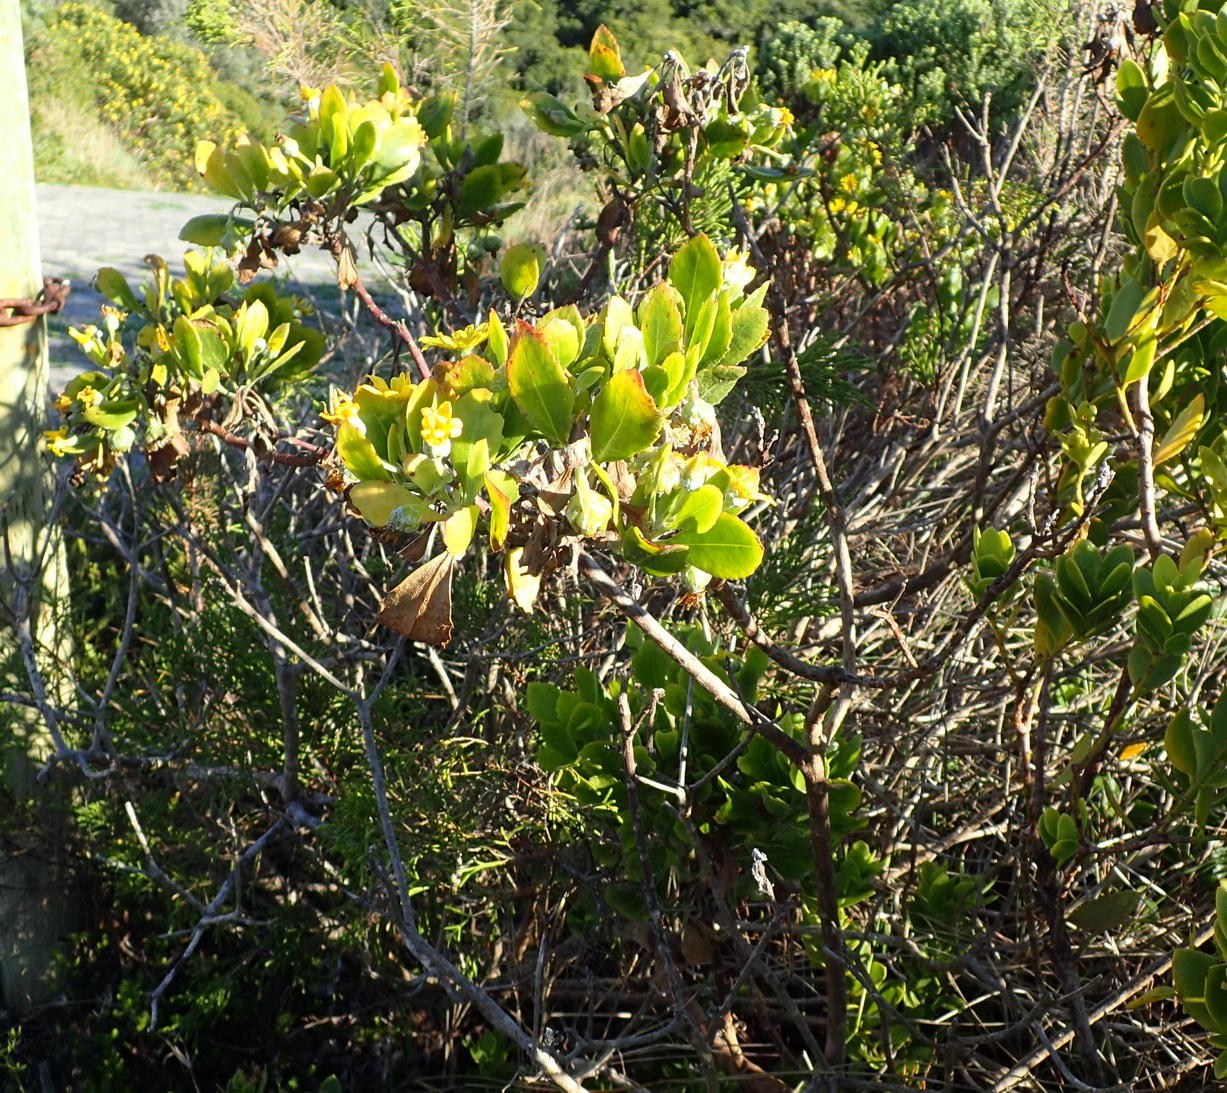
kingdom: Plantae
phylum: Tracheophyta
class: Magnoliopsida
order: Asterales
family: Asteraceae
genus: Osteospermum
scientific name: Osteospermum moniliferum
